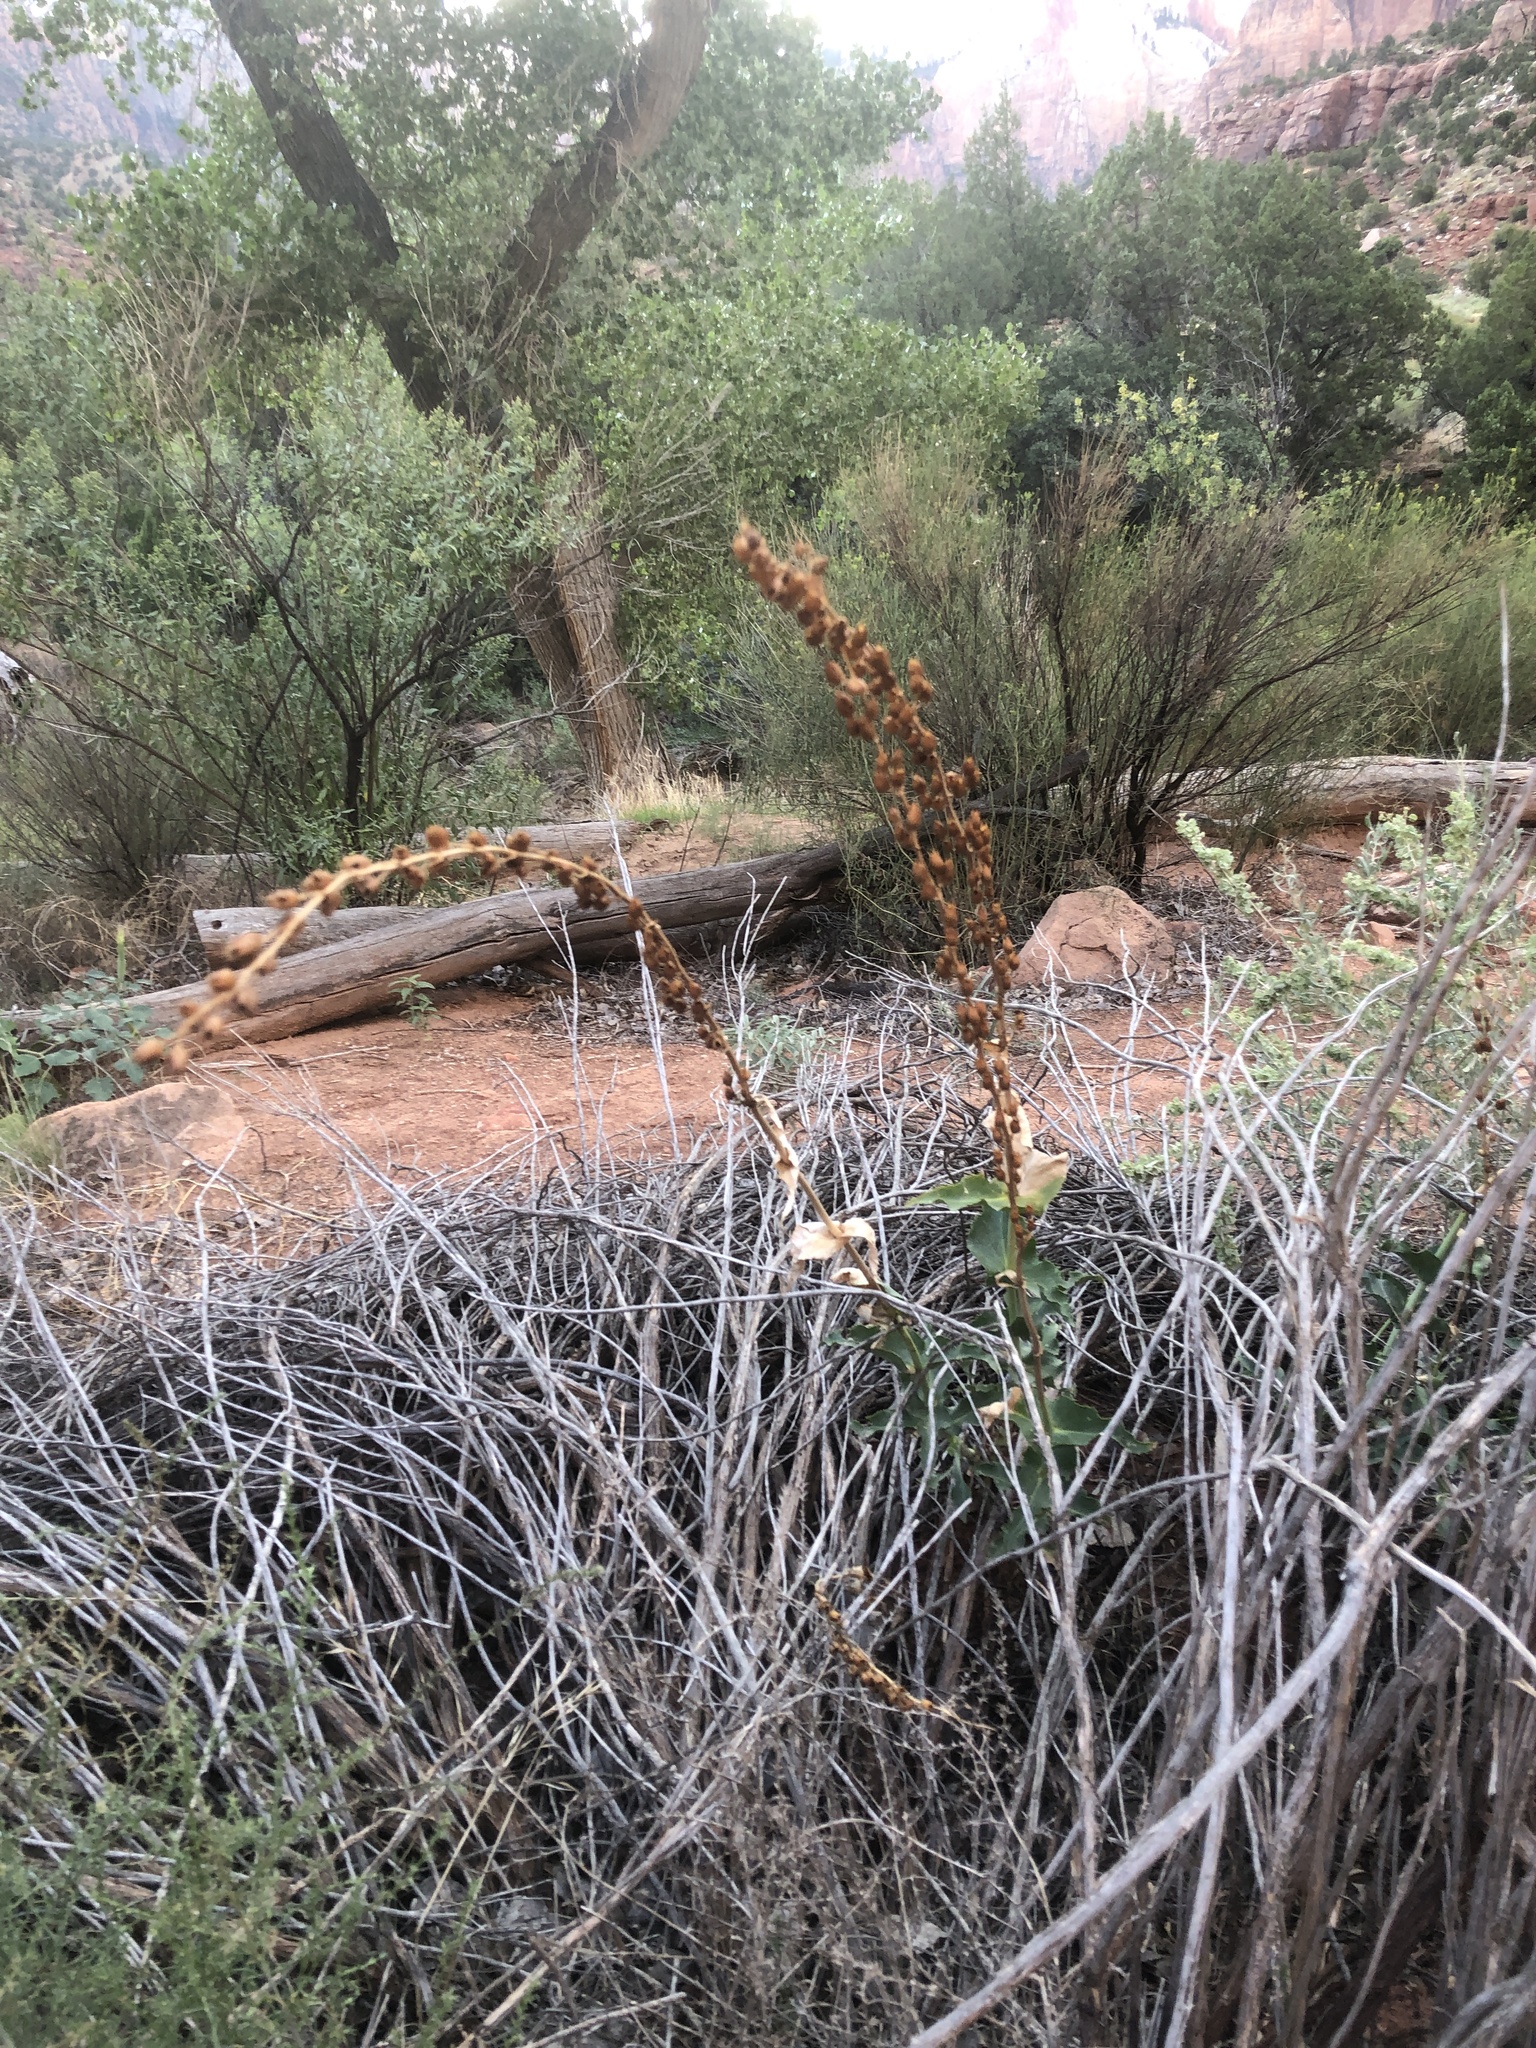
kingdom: Plantae
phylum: Tracheophyta
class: Magnoliopsida
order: Lamiales
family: Plantaginaceae
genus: Penstemon
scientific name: Penstemon eatonii
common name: Eaton's penstemon
